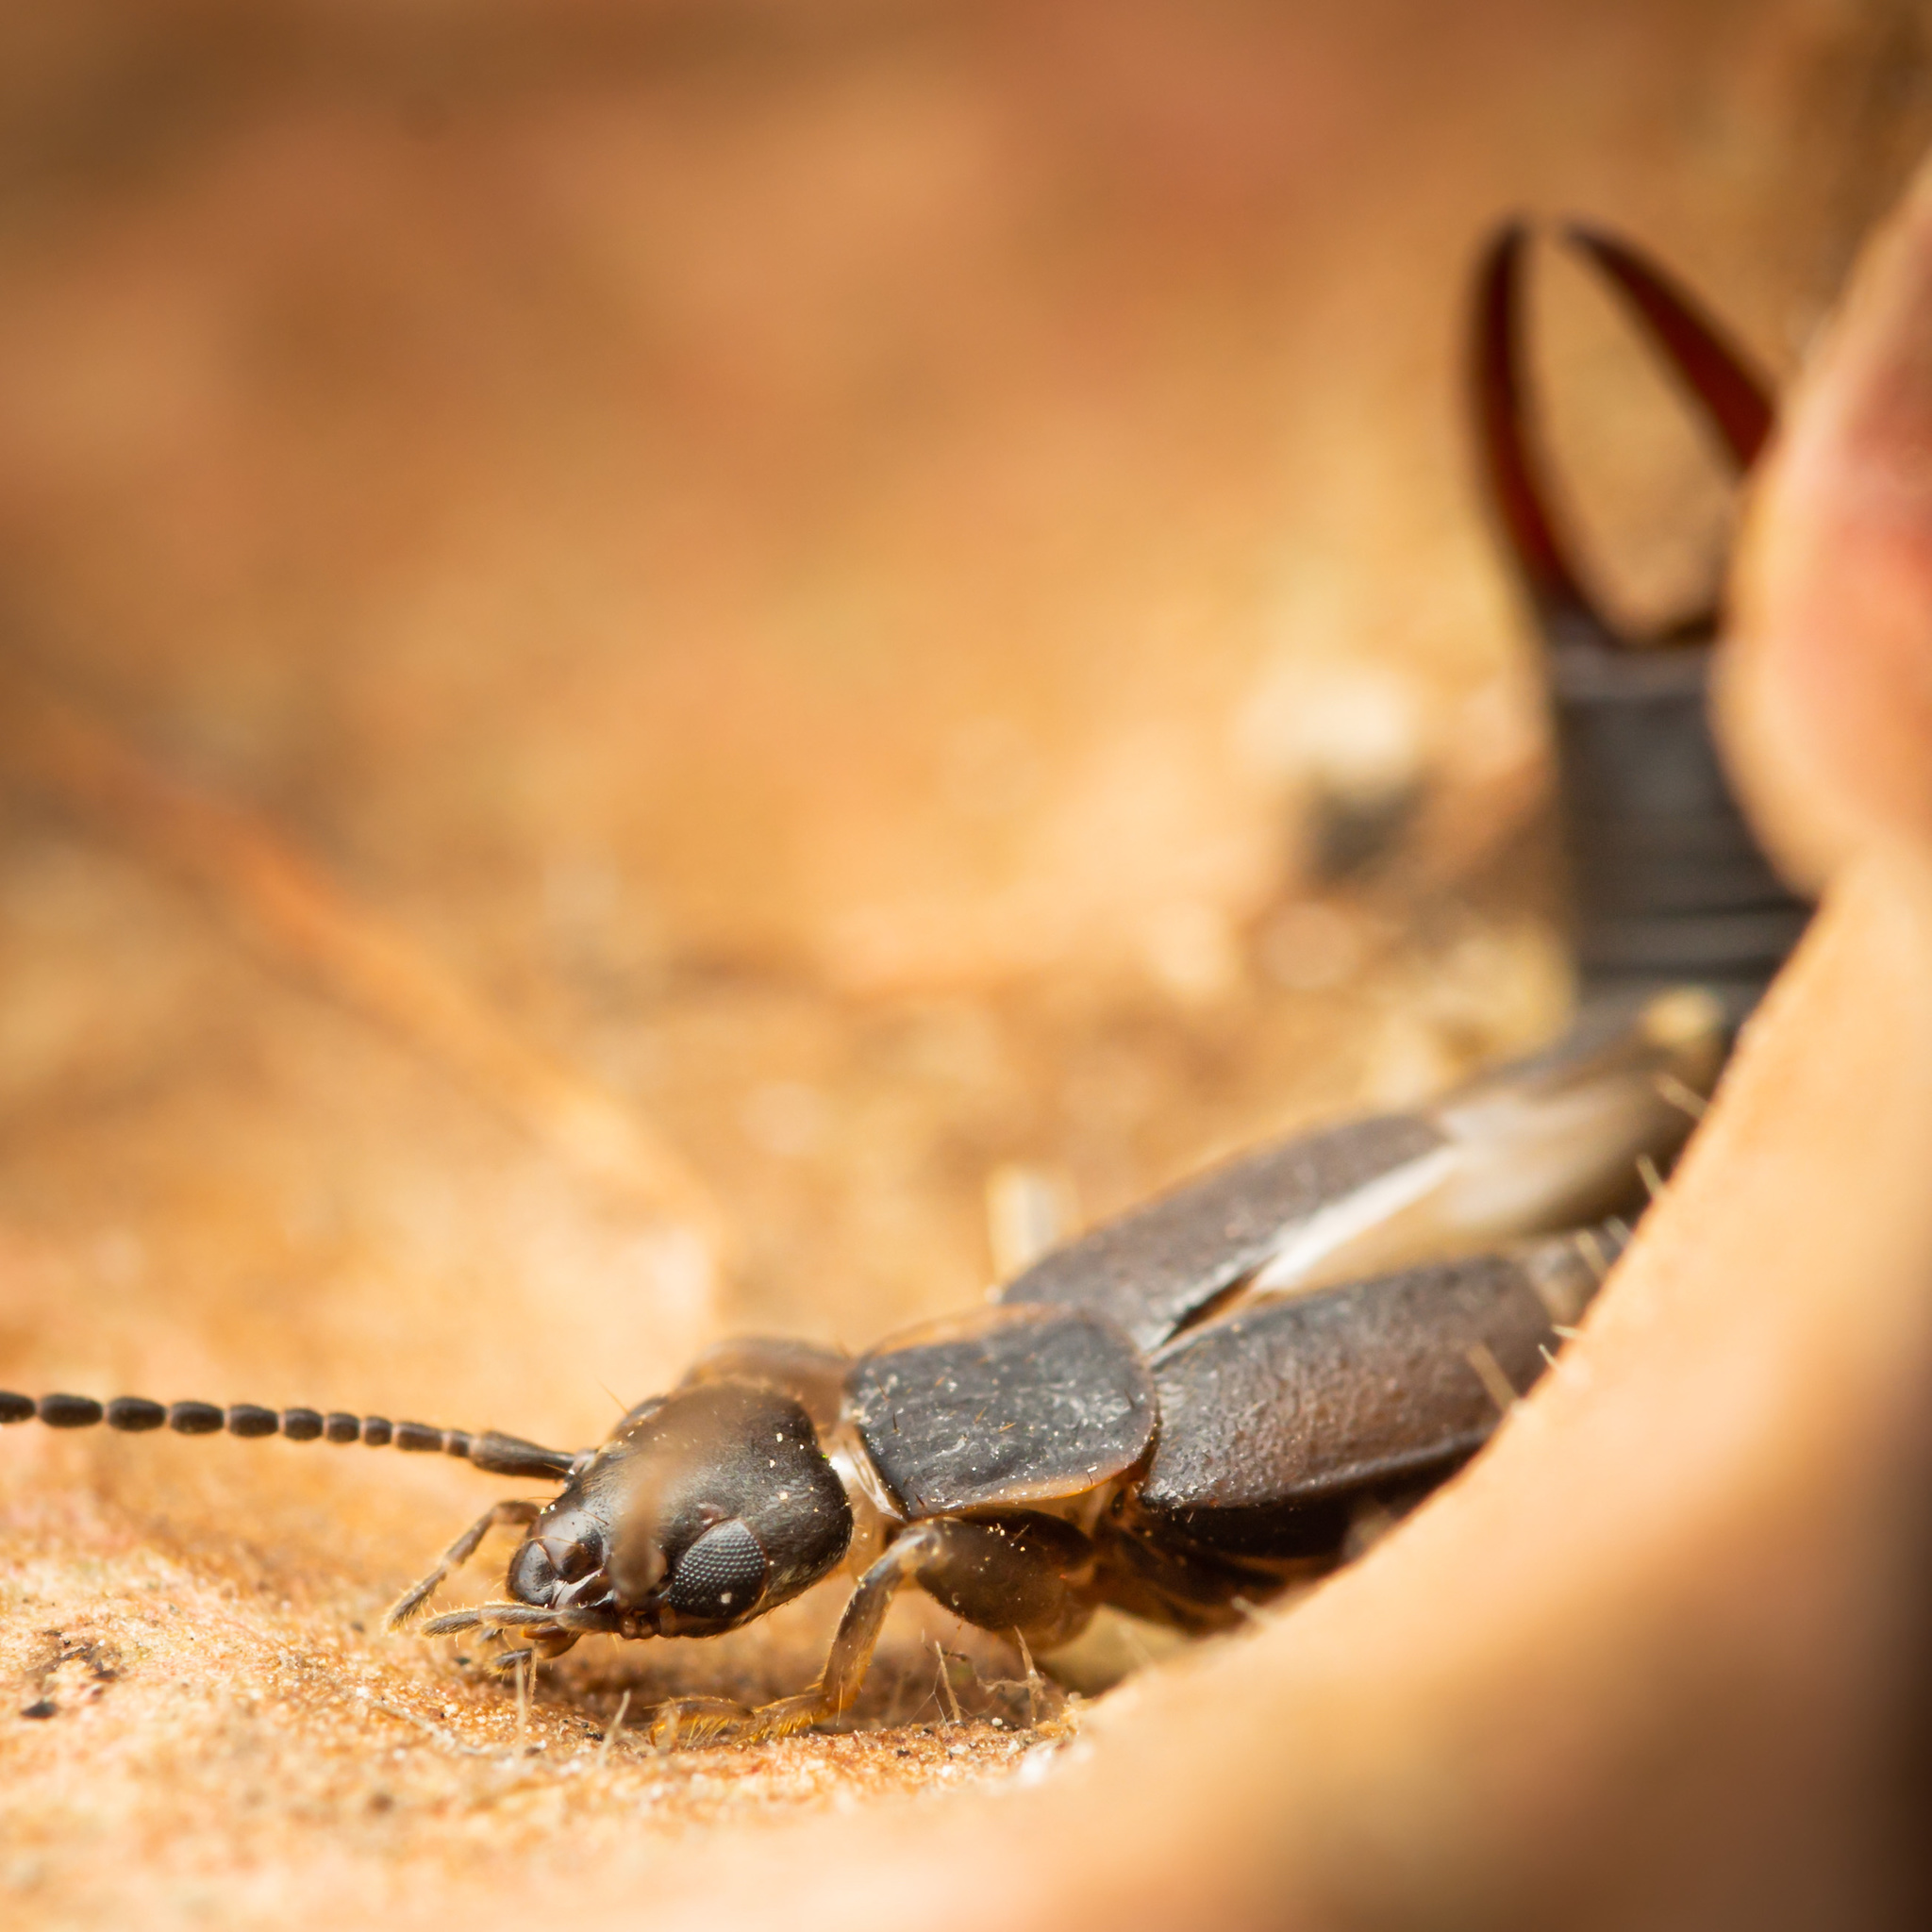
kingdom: Animalia
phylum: Arthropoda
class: Insecta
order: Dermaptera
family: Labiduridae
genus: Nala
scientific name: Nala lividipes
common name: Earwig
